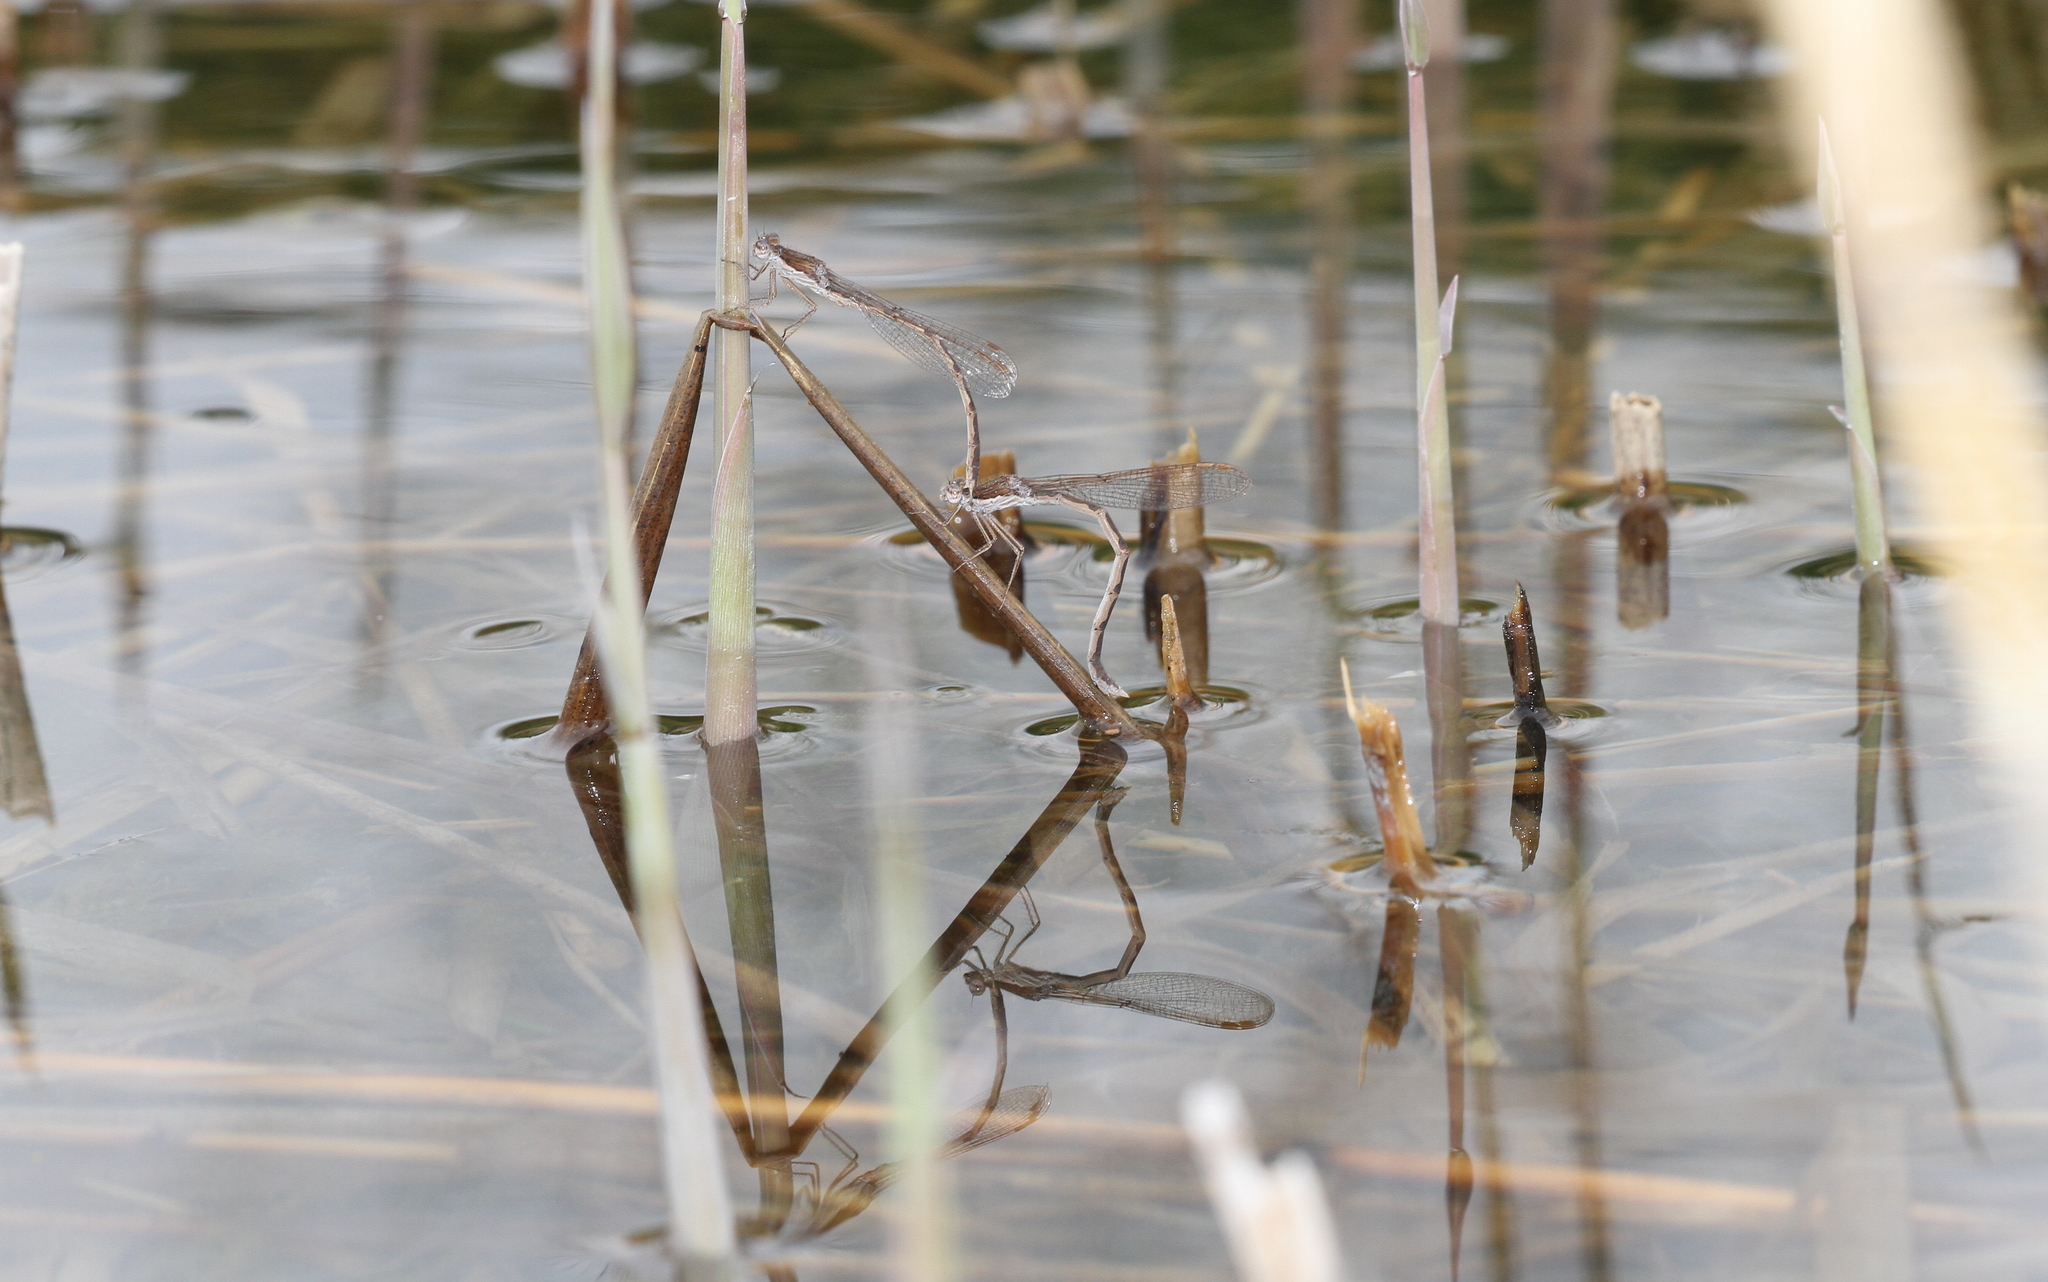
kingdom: Animalia
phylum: Arthropoda
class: Insecta
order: Odonata
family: Lestidae
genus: Sympecma
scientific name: Sympecma fusca
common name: Common winter damsel
